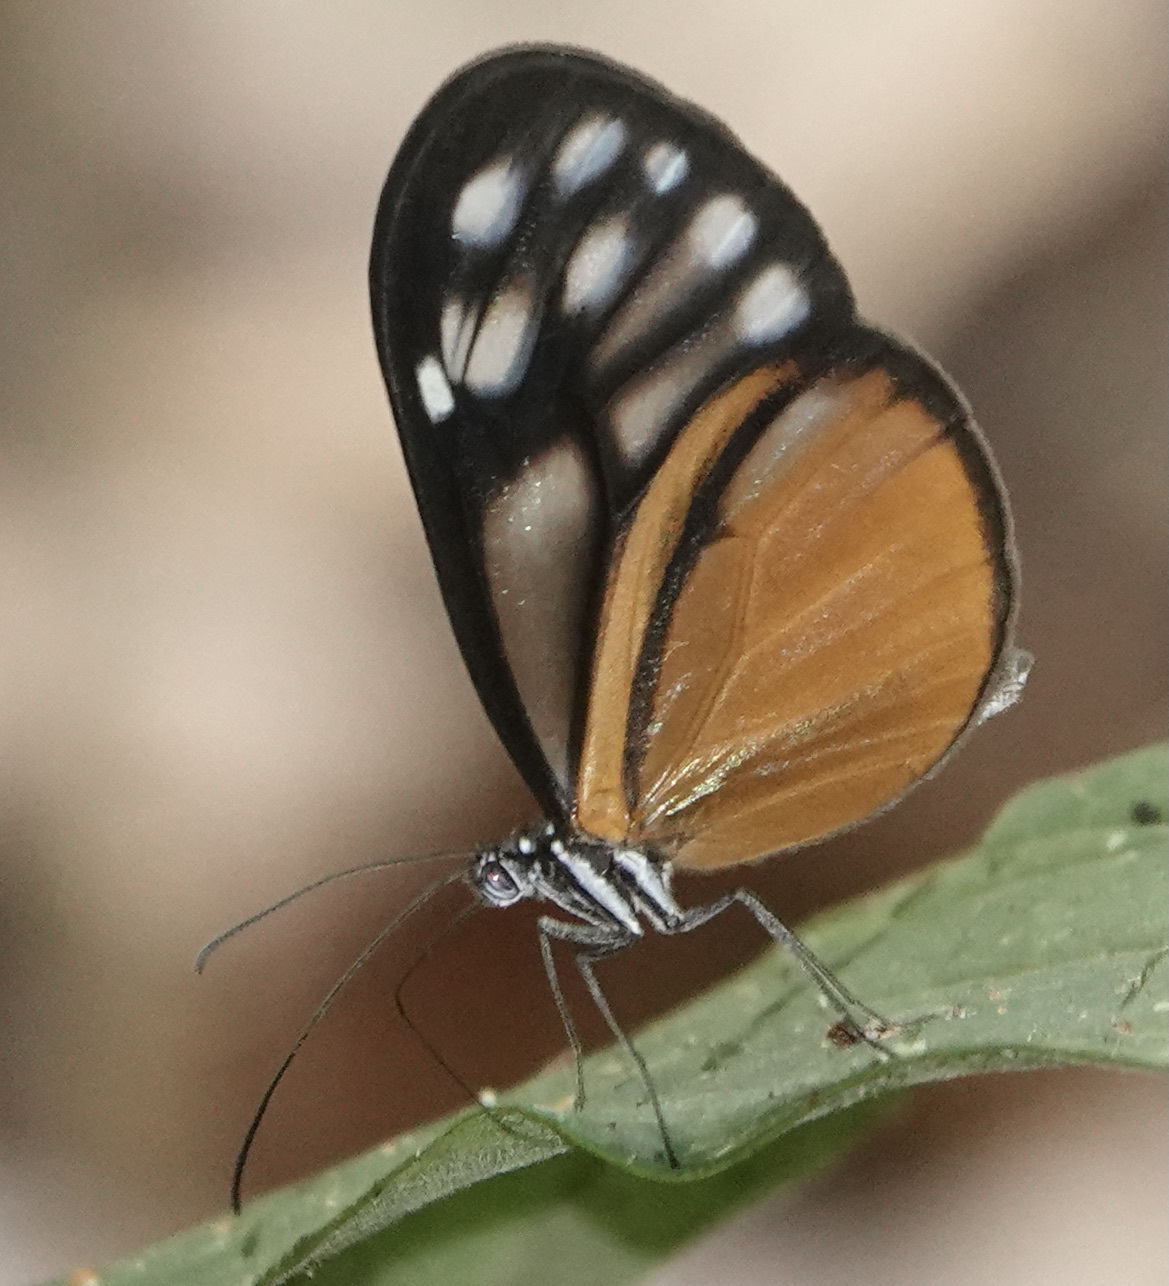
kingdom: Animalia
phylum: Arthropoda
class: Insecta
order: Lepidoptera
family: Nymphalidae
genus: Hypoleria
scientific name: Hypoleria lavinia
